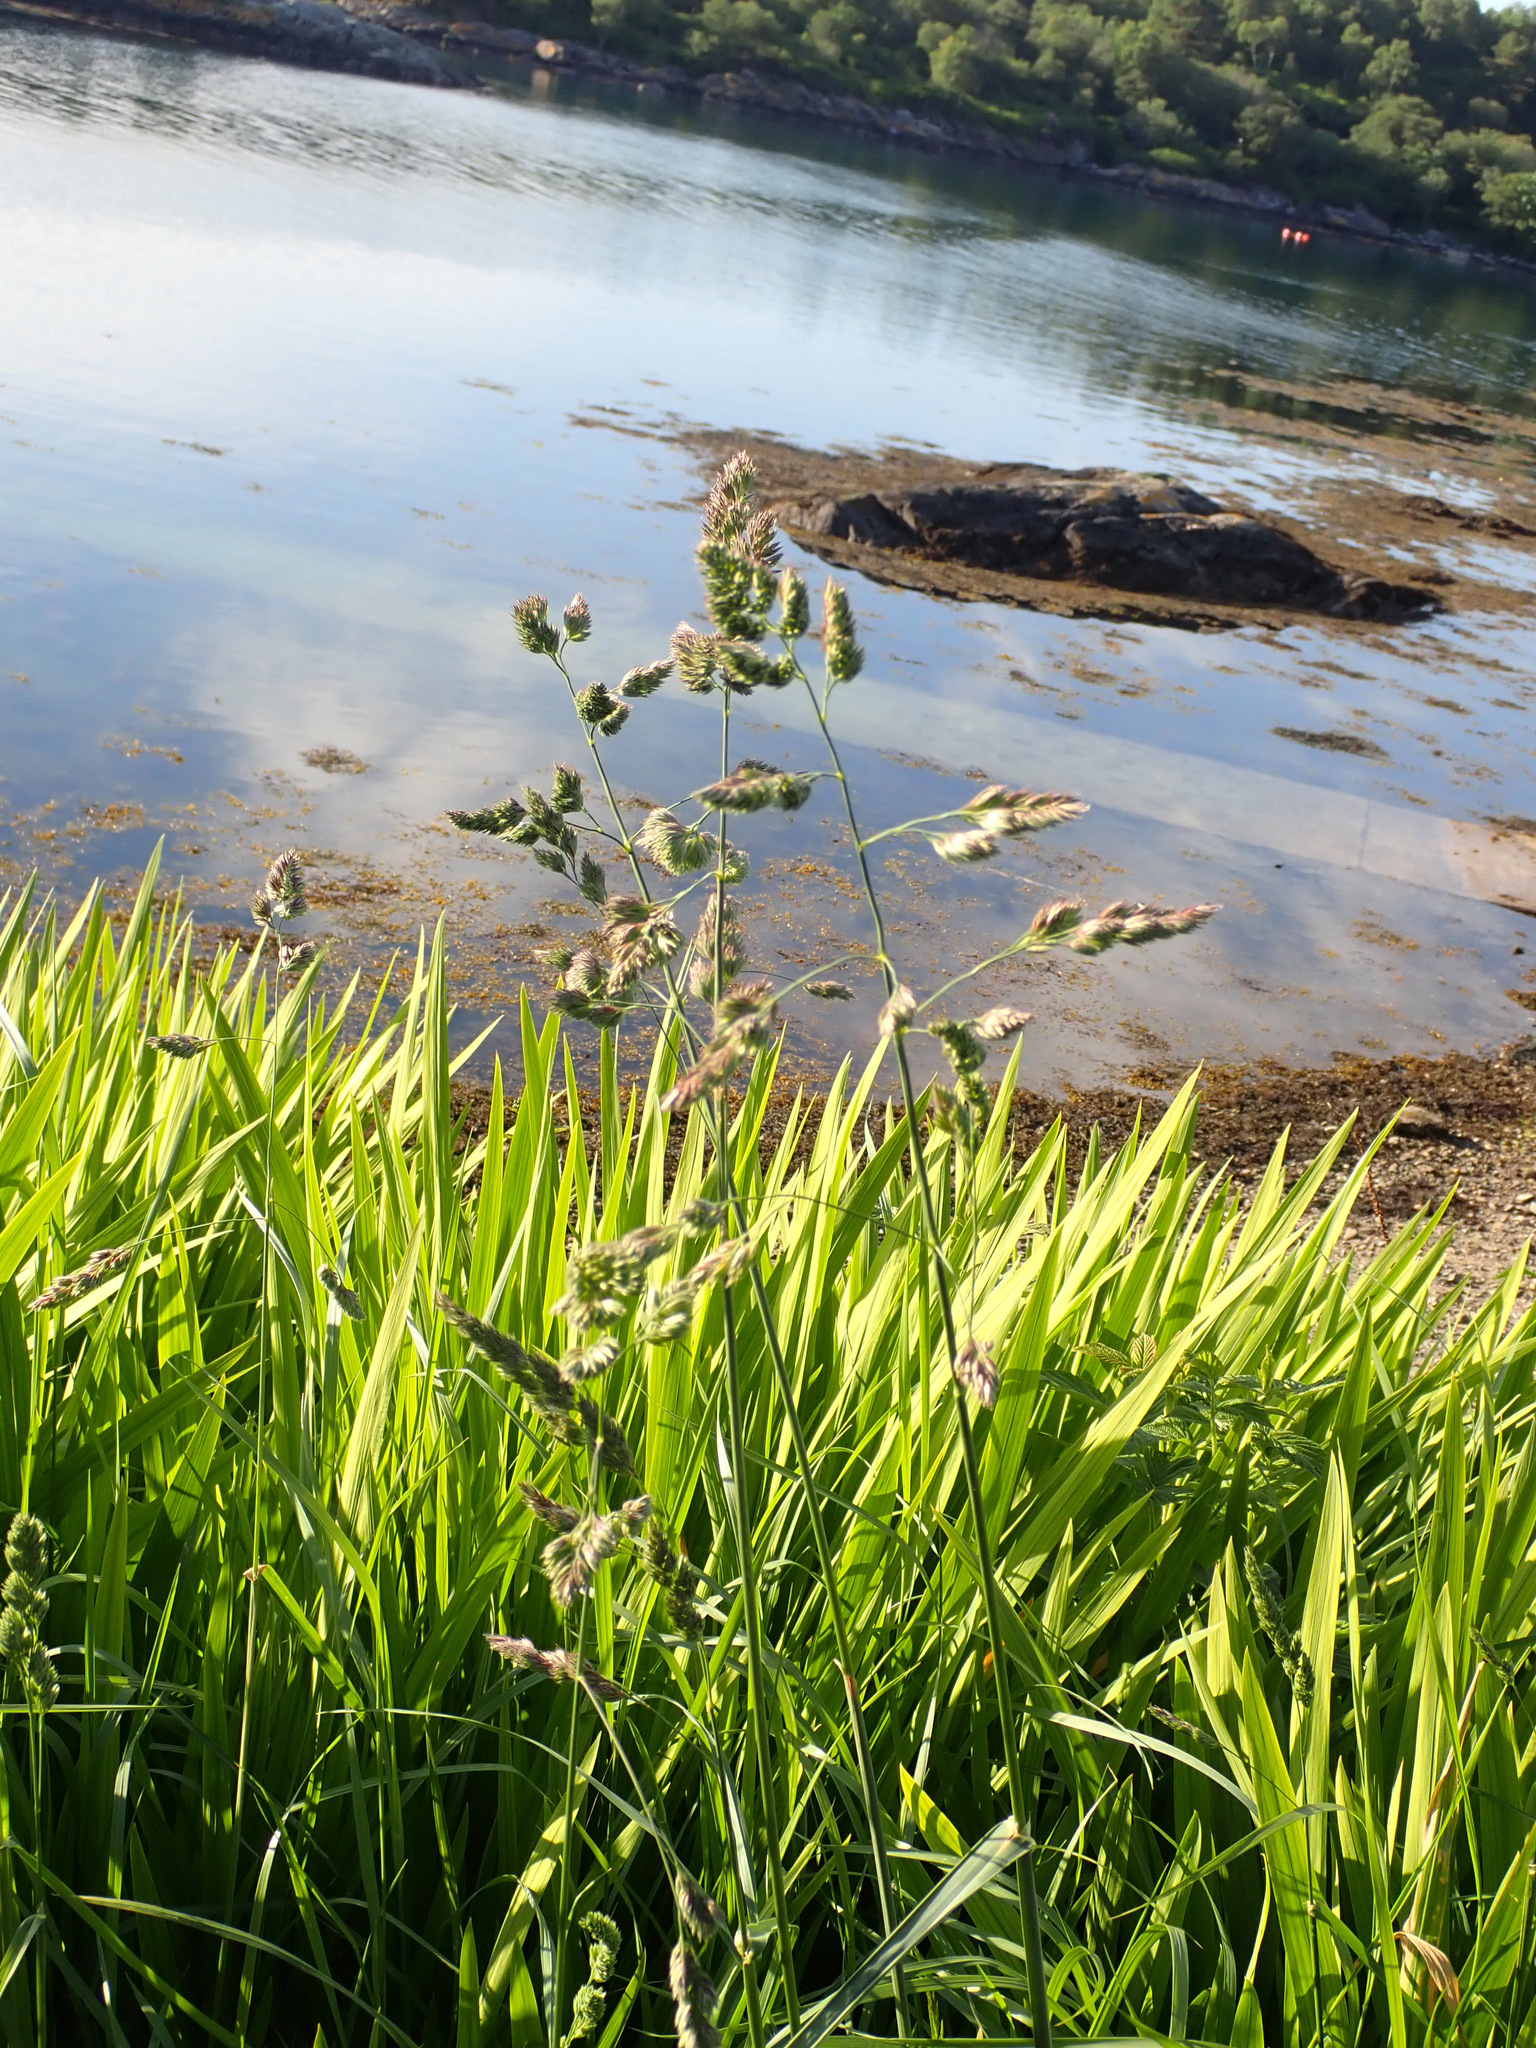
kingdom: Plantae
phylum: Tracheophyta
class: Liliopsida
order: Poales
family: Poaceae
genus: Dactylis
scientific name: Dactylis glomerata
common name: Orchardgrass
